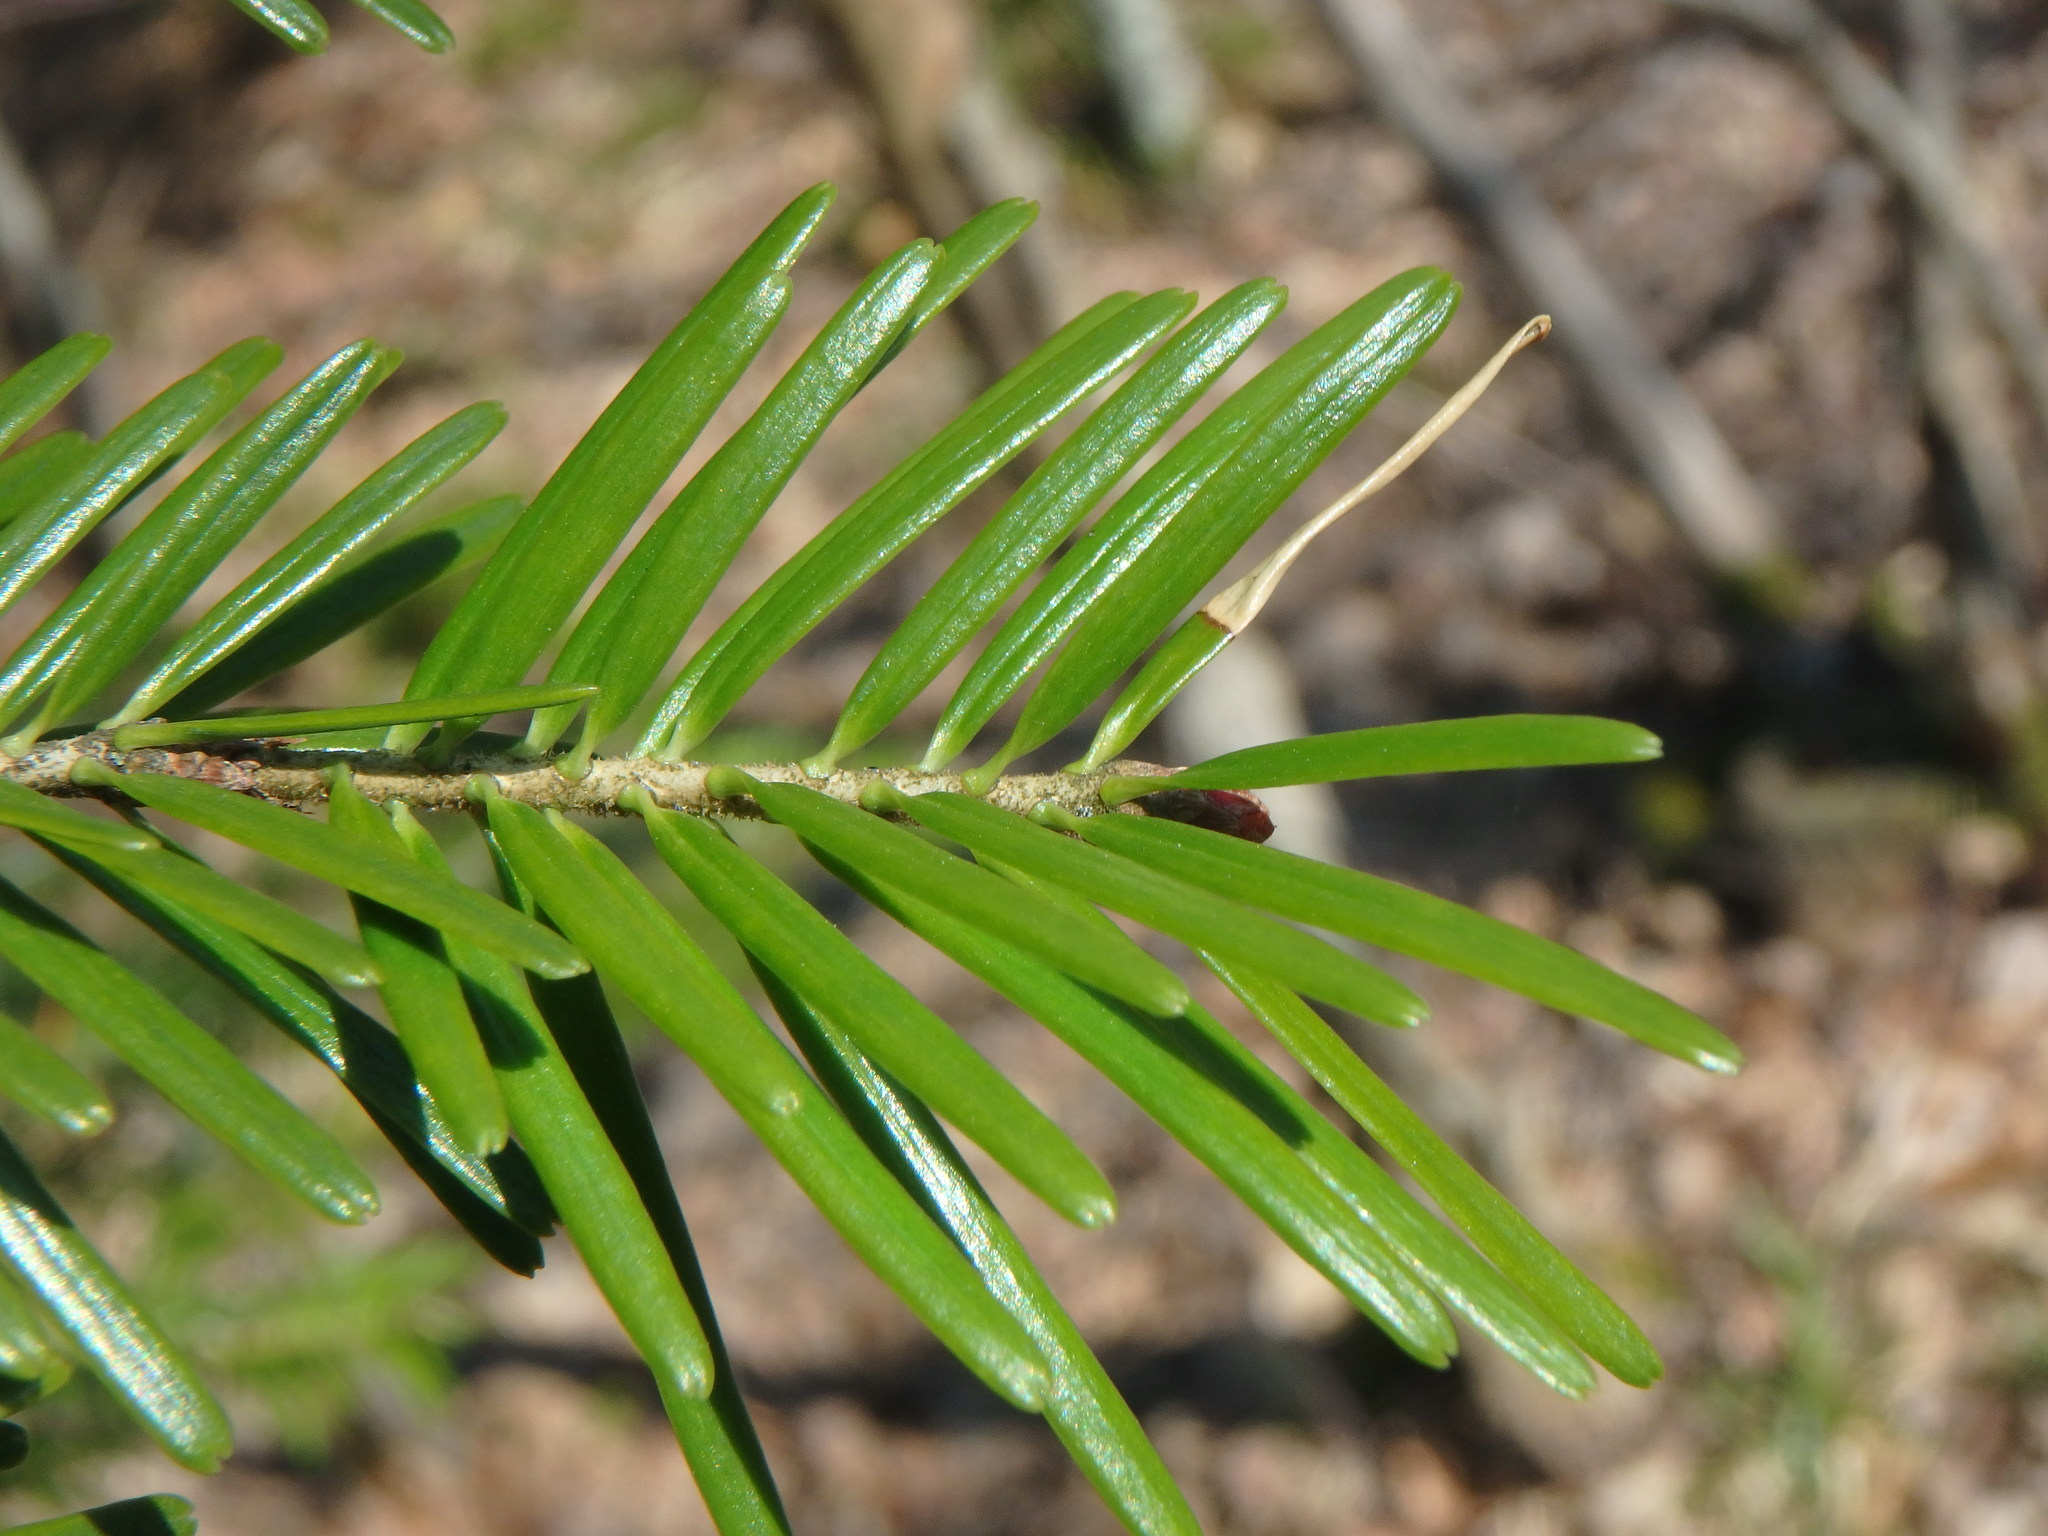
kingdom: Plantae
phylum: Tracheophyta
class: Pinopsida
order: Pinales
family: Pinaceae
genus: Abies
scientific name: Abies alba
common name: Silver fir
